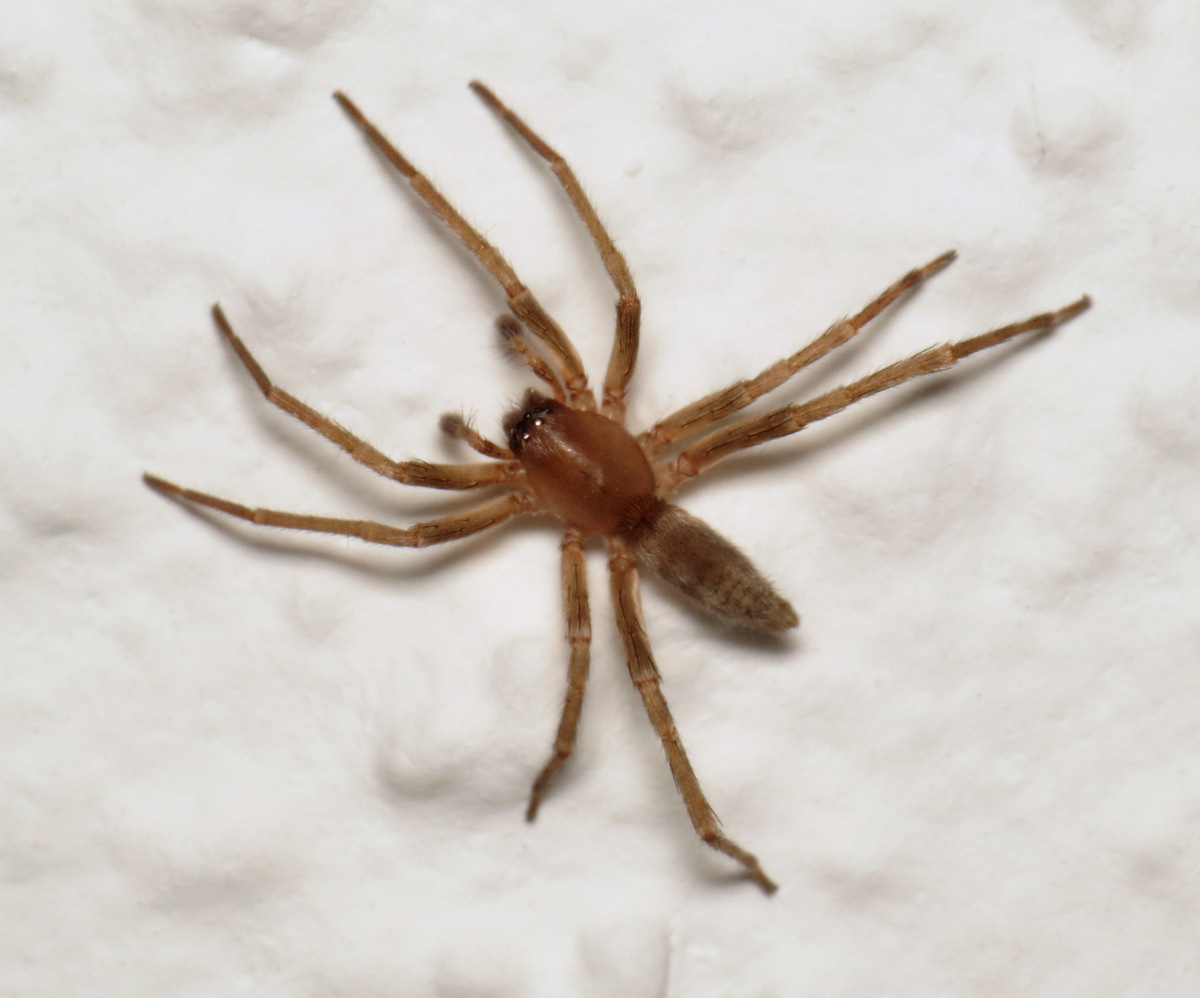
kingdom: Animalia
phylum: Arthropoda
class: Arachnida
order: Araneae
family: Clubionidae
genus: Elaver
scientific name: Elaver excepta
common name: White sac spider
